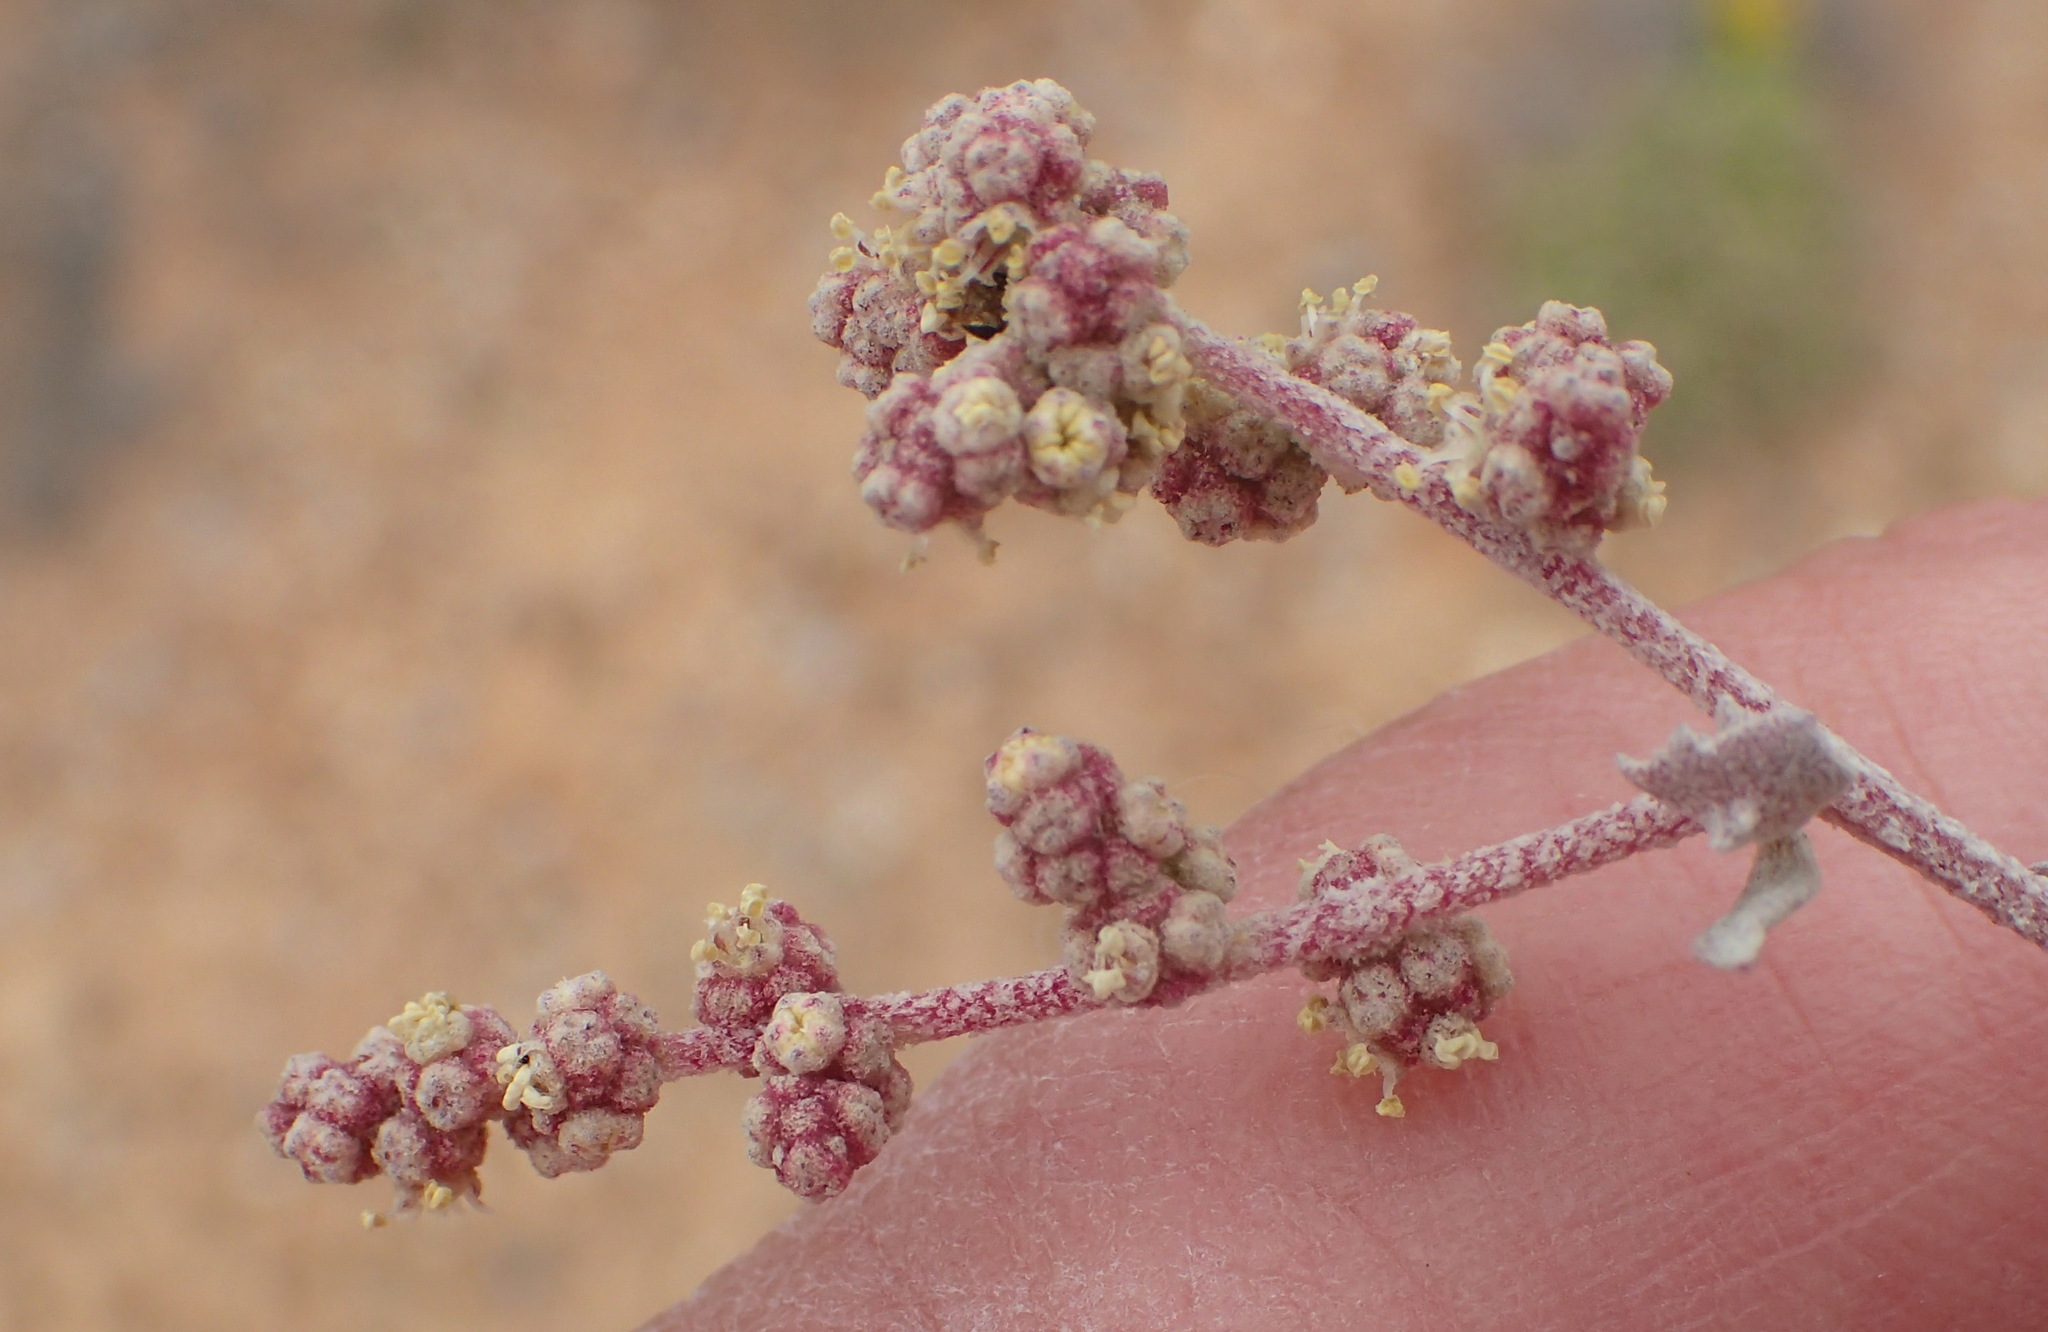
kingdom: Plantae
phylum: Tracheophyta
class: Magnoliopsida
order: Caryophyllales
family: Amaranthaceae
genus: Atriplex
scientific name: Atriplex vestita
